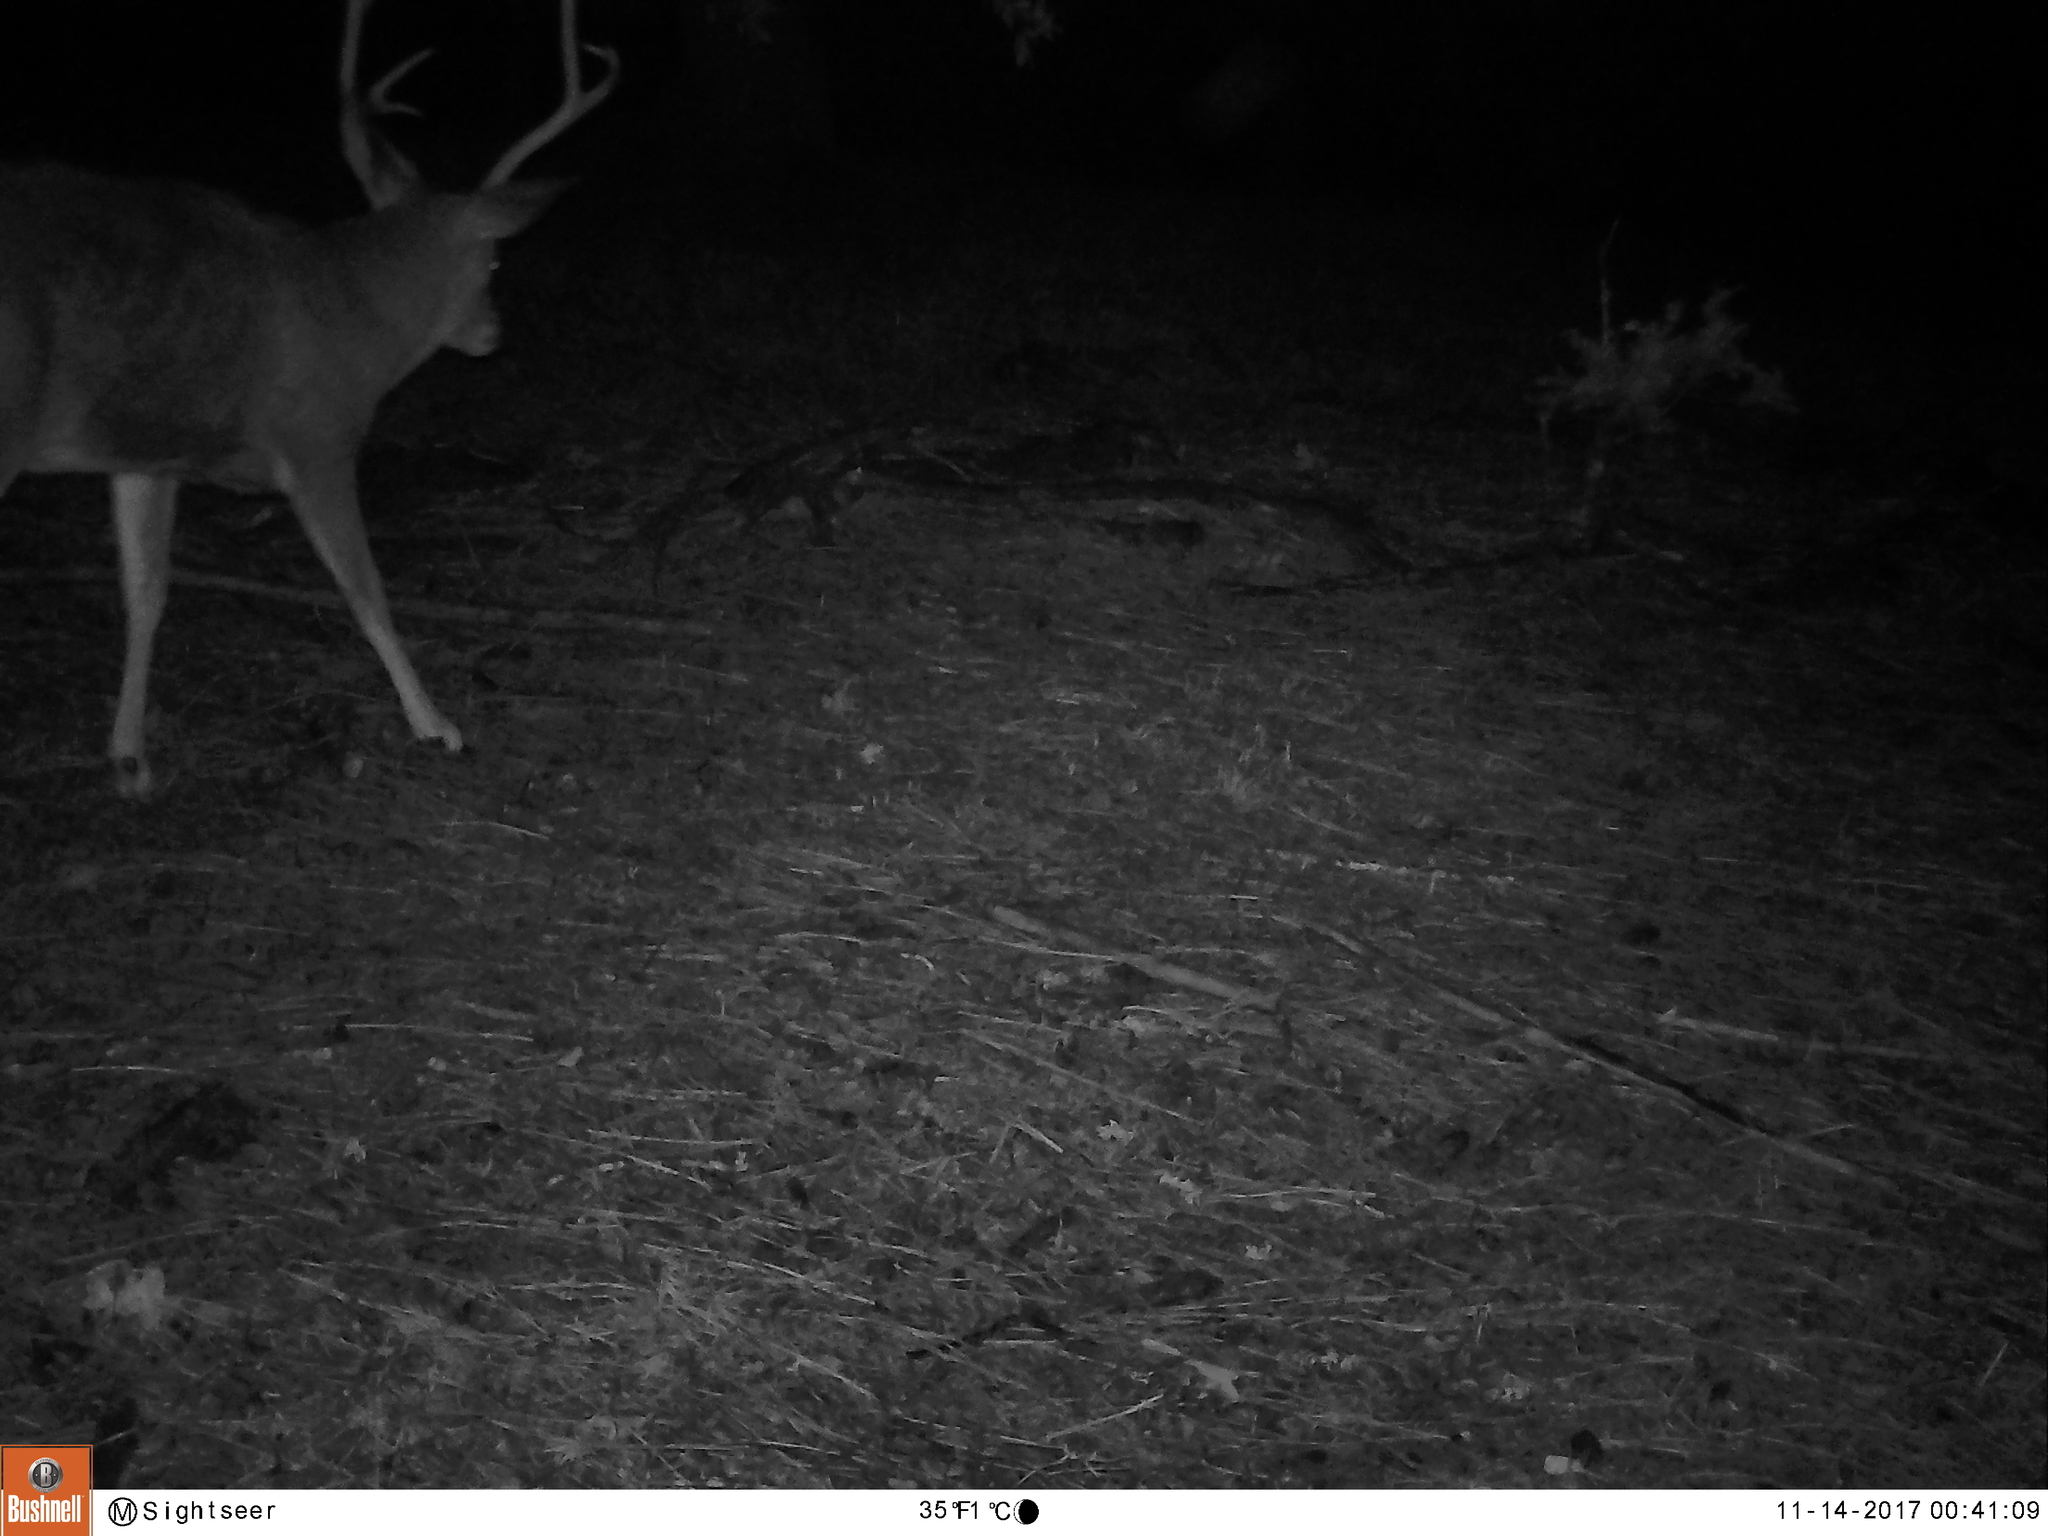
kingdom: Animalia
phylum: Chordata
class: Mammalia
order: Artiodactyla
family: Cervidae
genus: Odocoileus
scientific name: Odocoileus hemionus
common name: Mule deer
